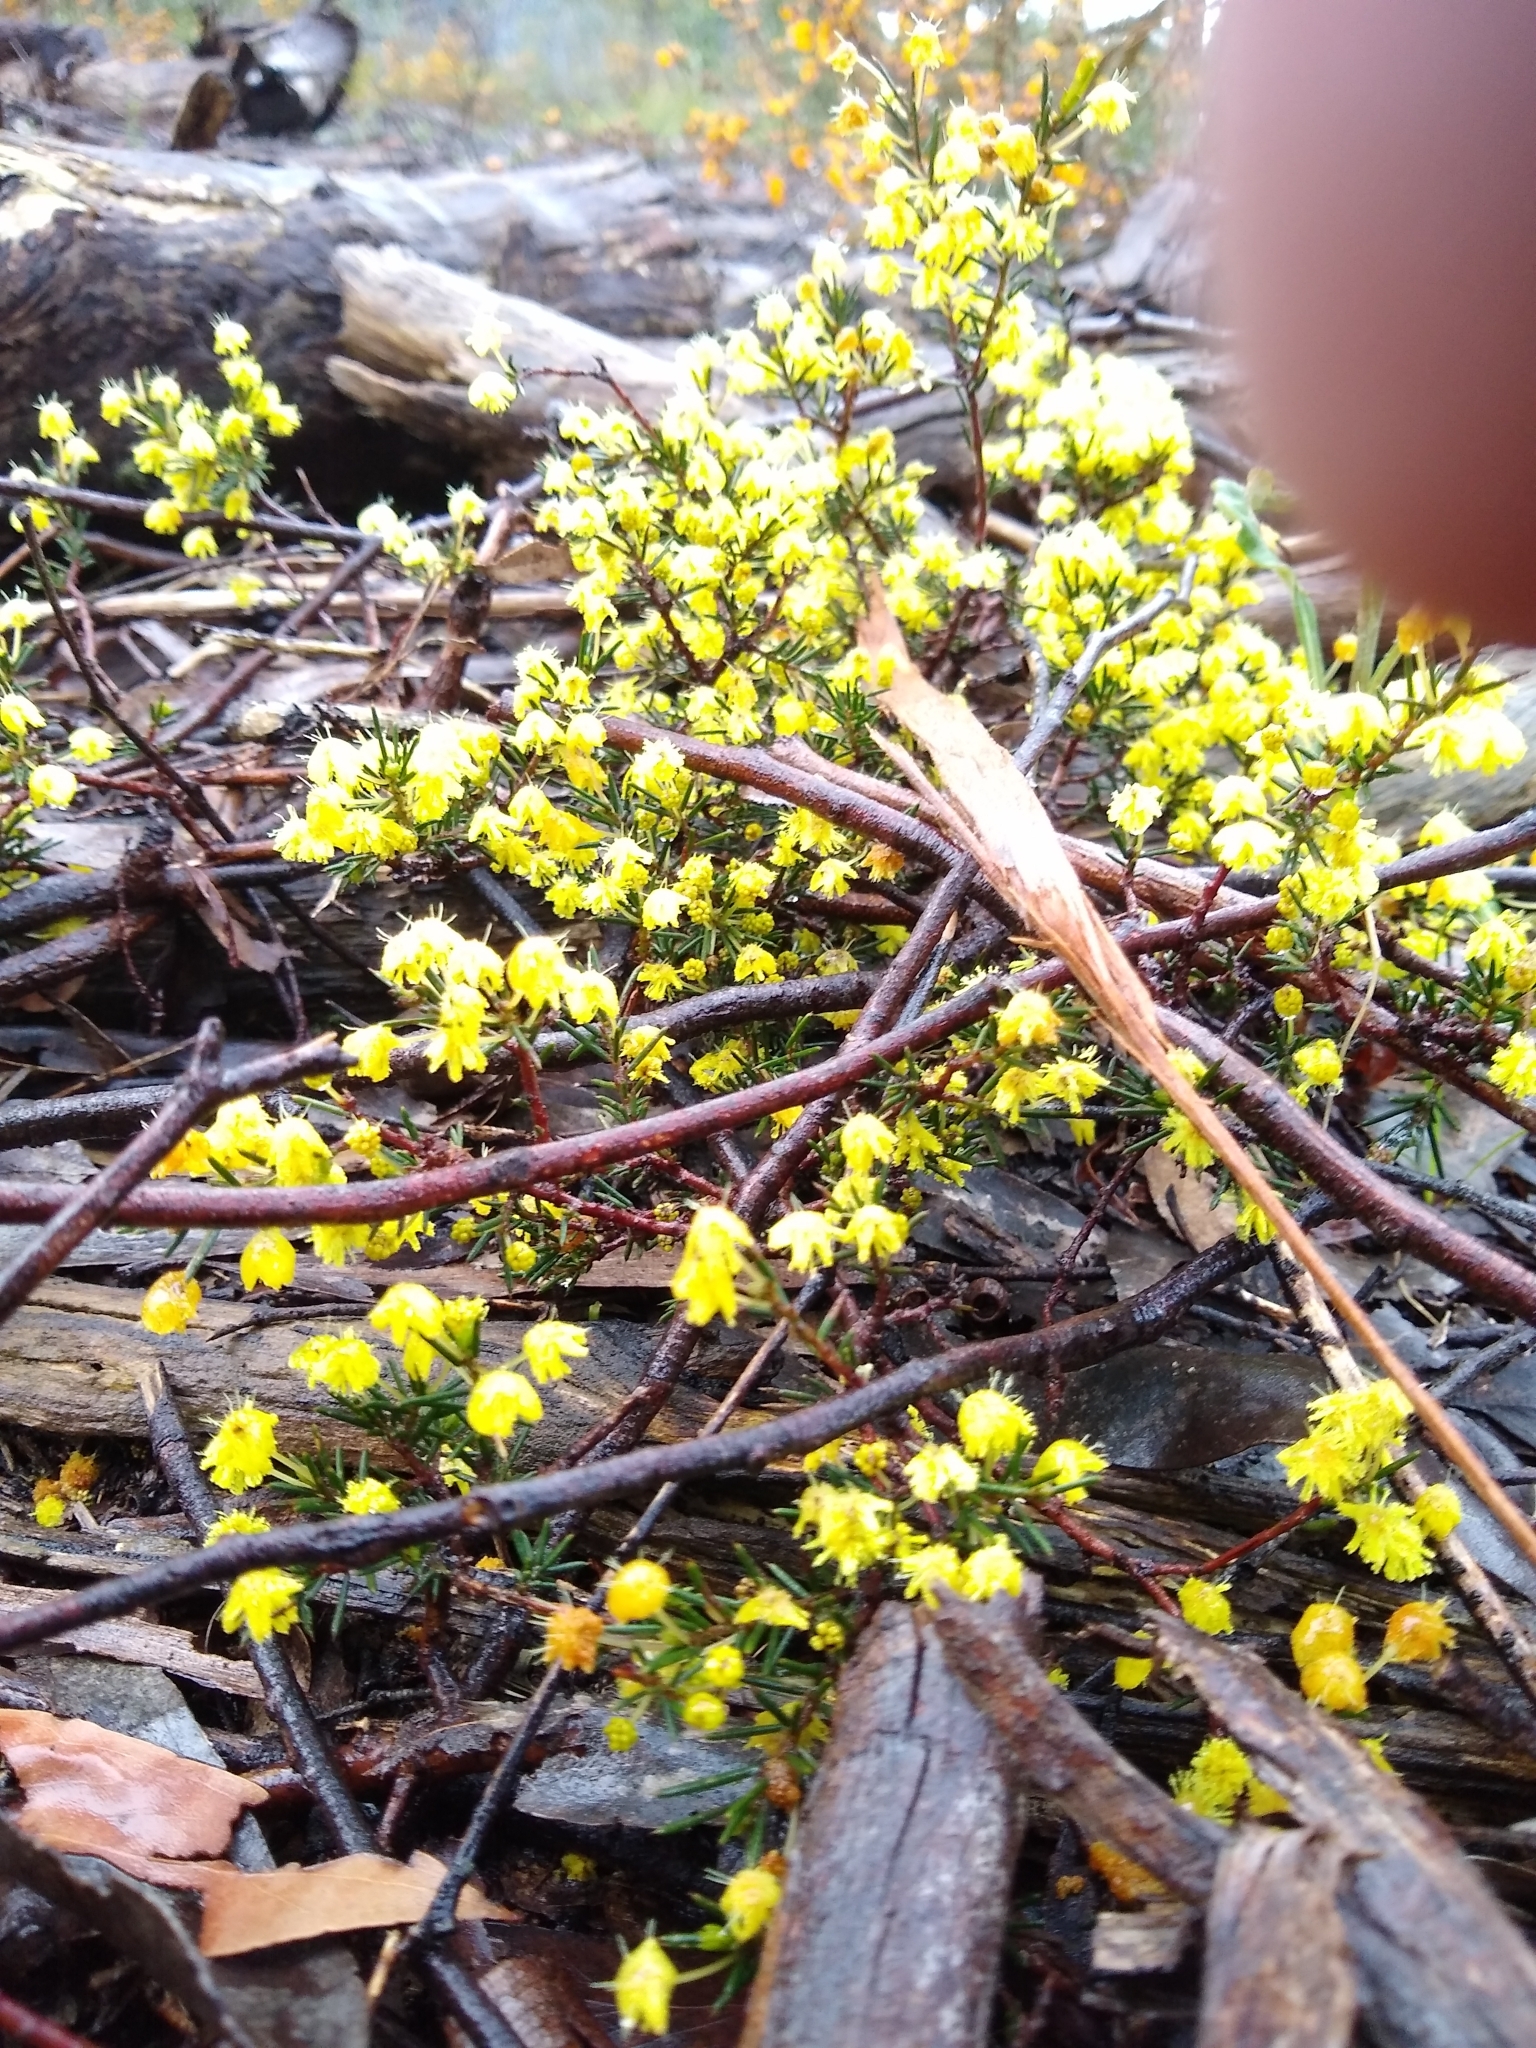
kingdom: Plantae
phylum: Tracheophyta
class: Magnoliopsida
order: Fabales
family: Fabaceae
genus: Acacia
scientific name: Acacia aculeatissima
